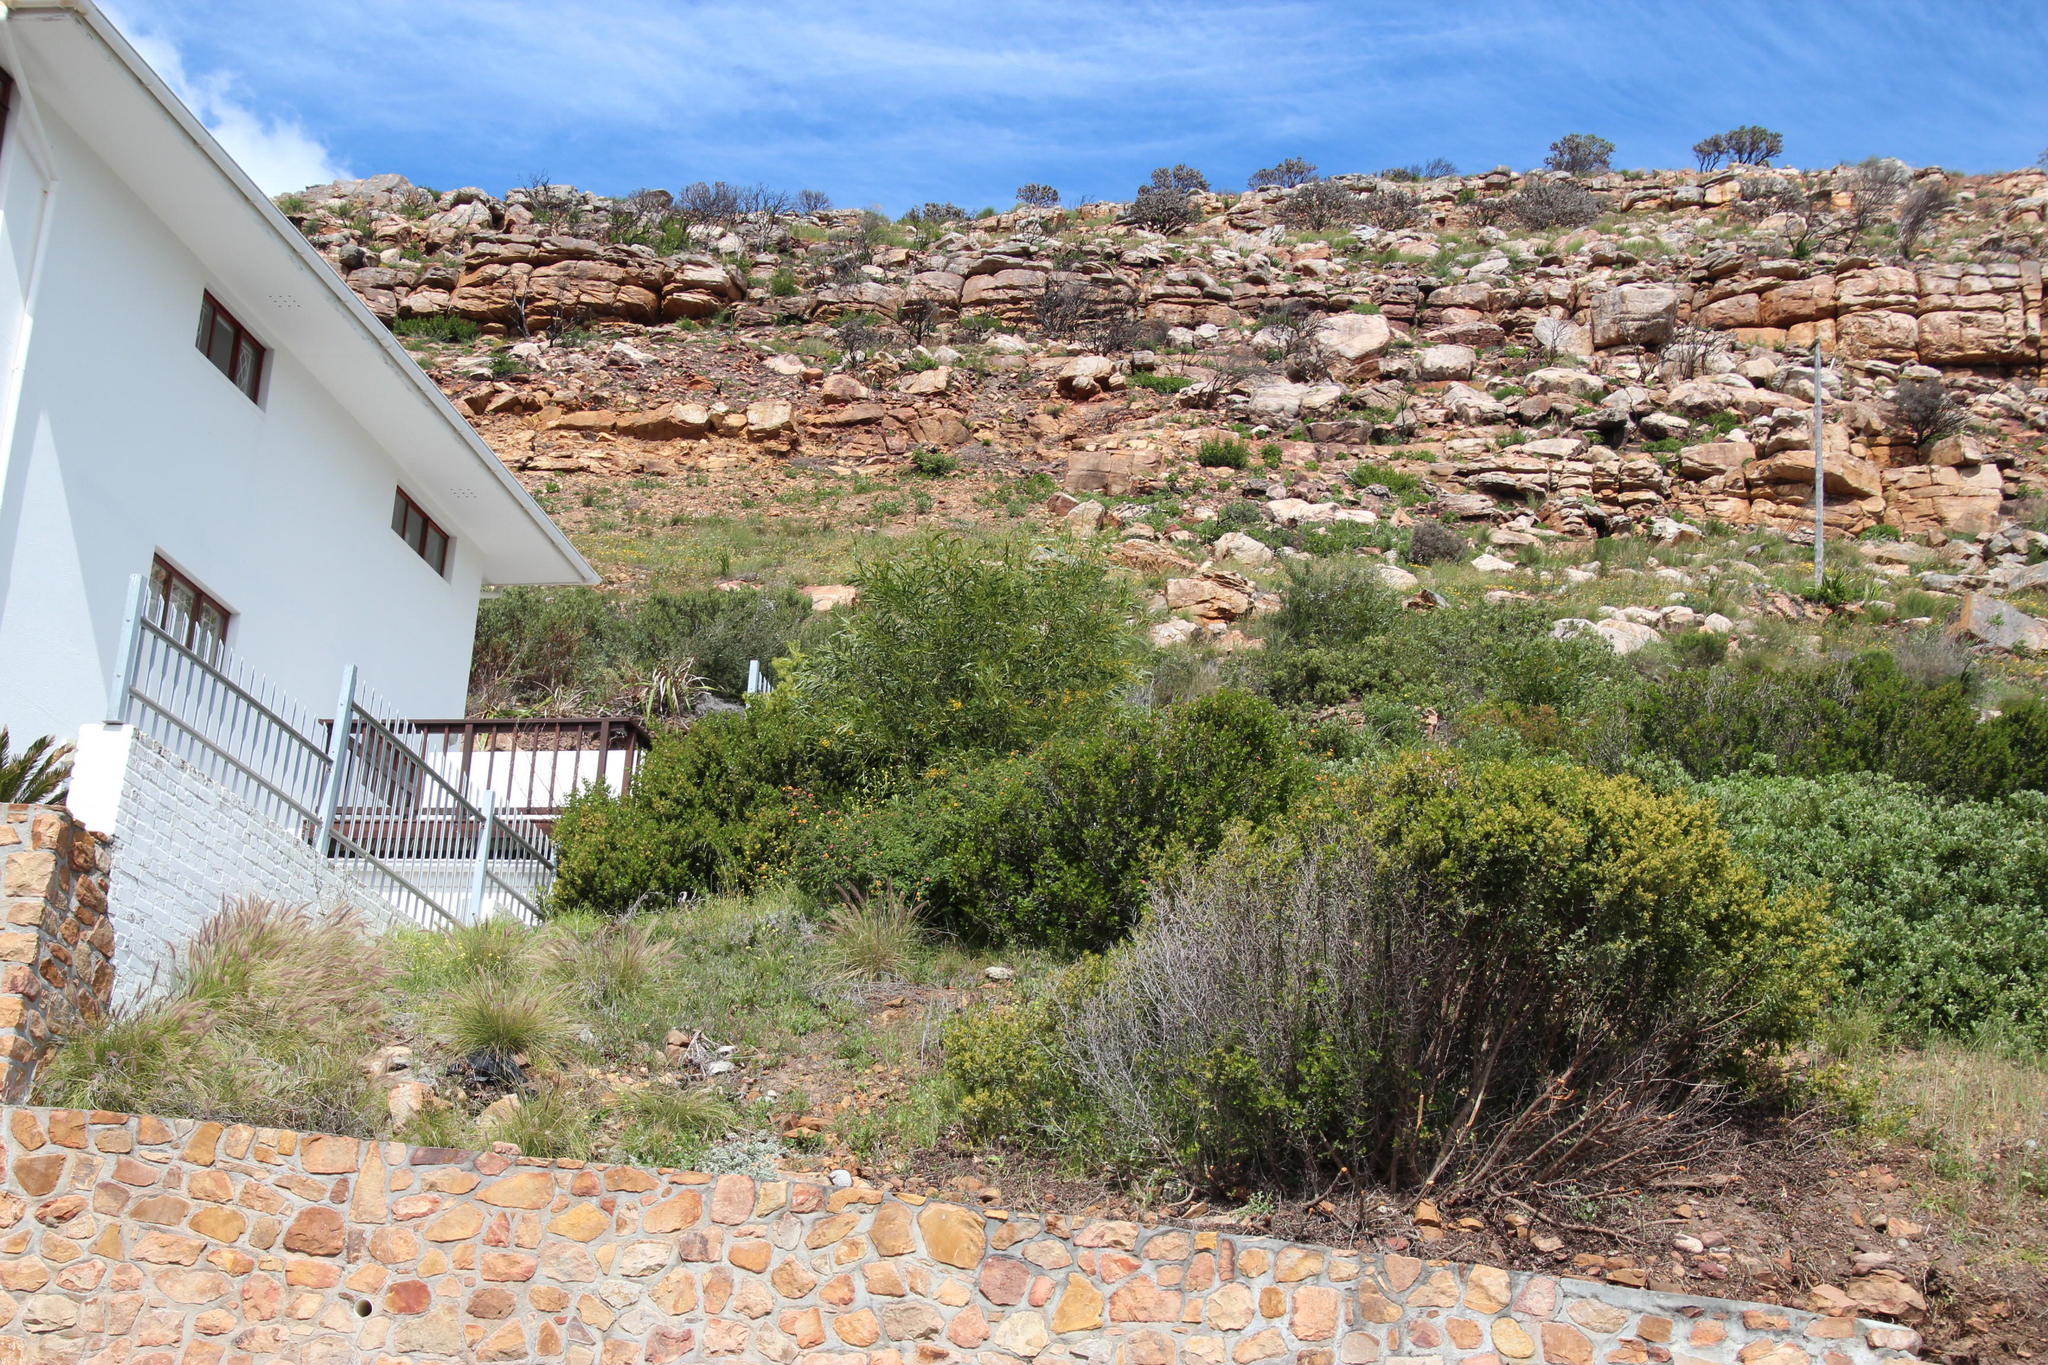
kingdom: Plantae
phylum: Tracheophyta
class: Magnoliopsida
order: Fabales
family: Fabaceae
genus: Acacia
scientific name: Acacia saligna
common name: Orange wattle
